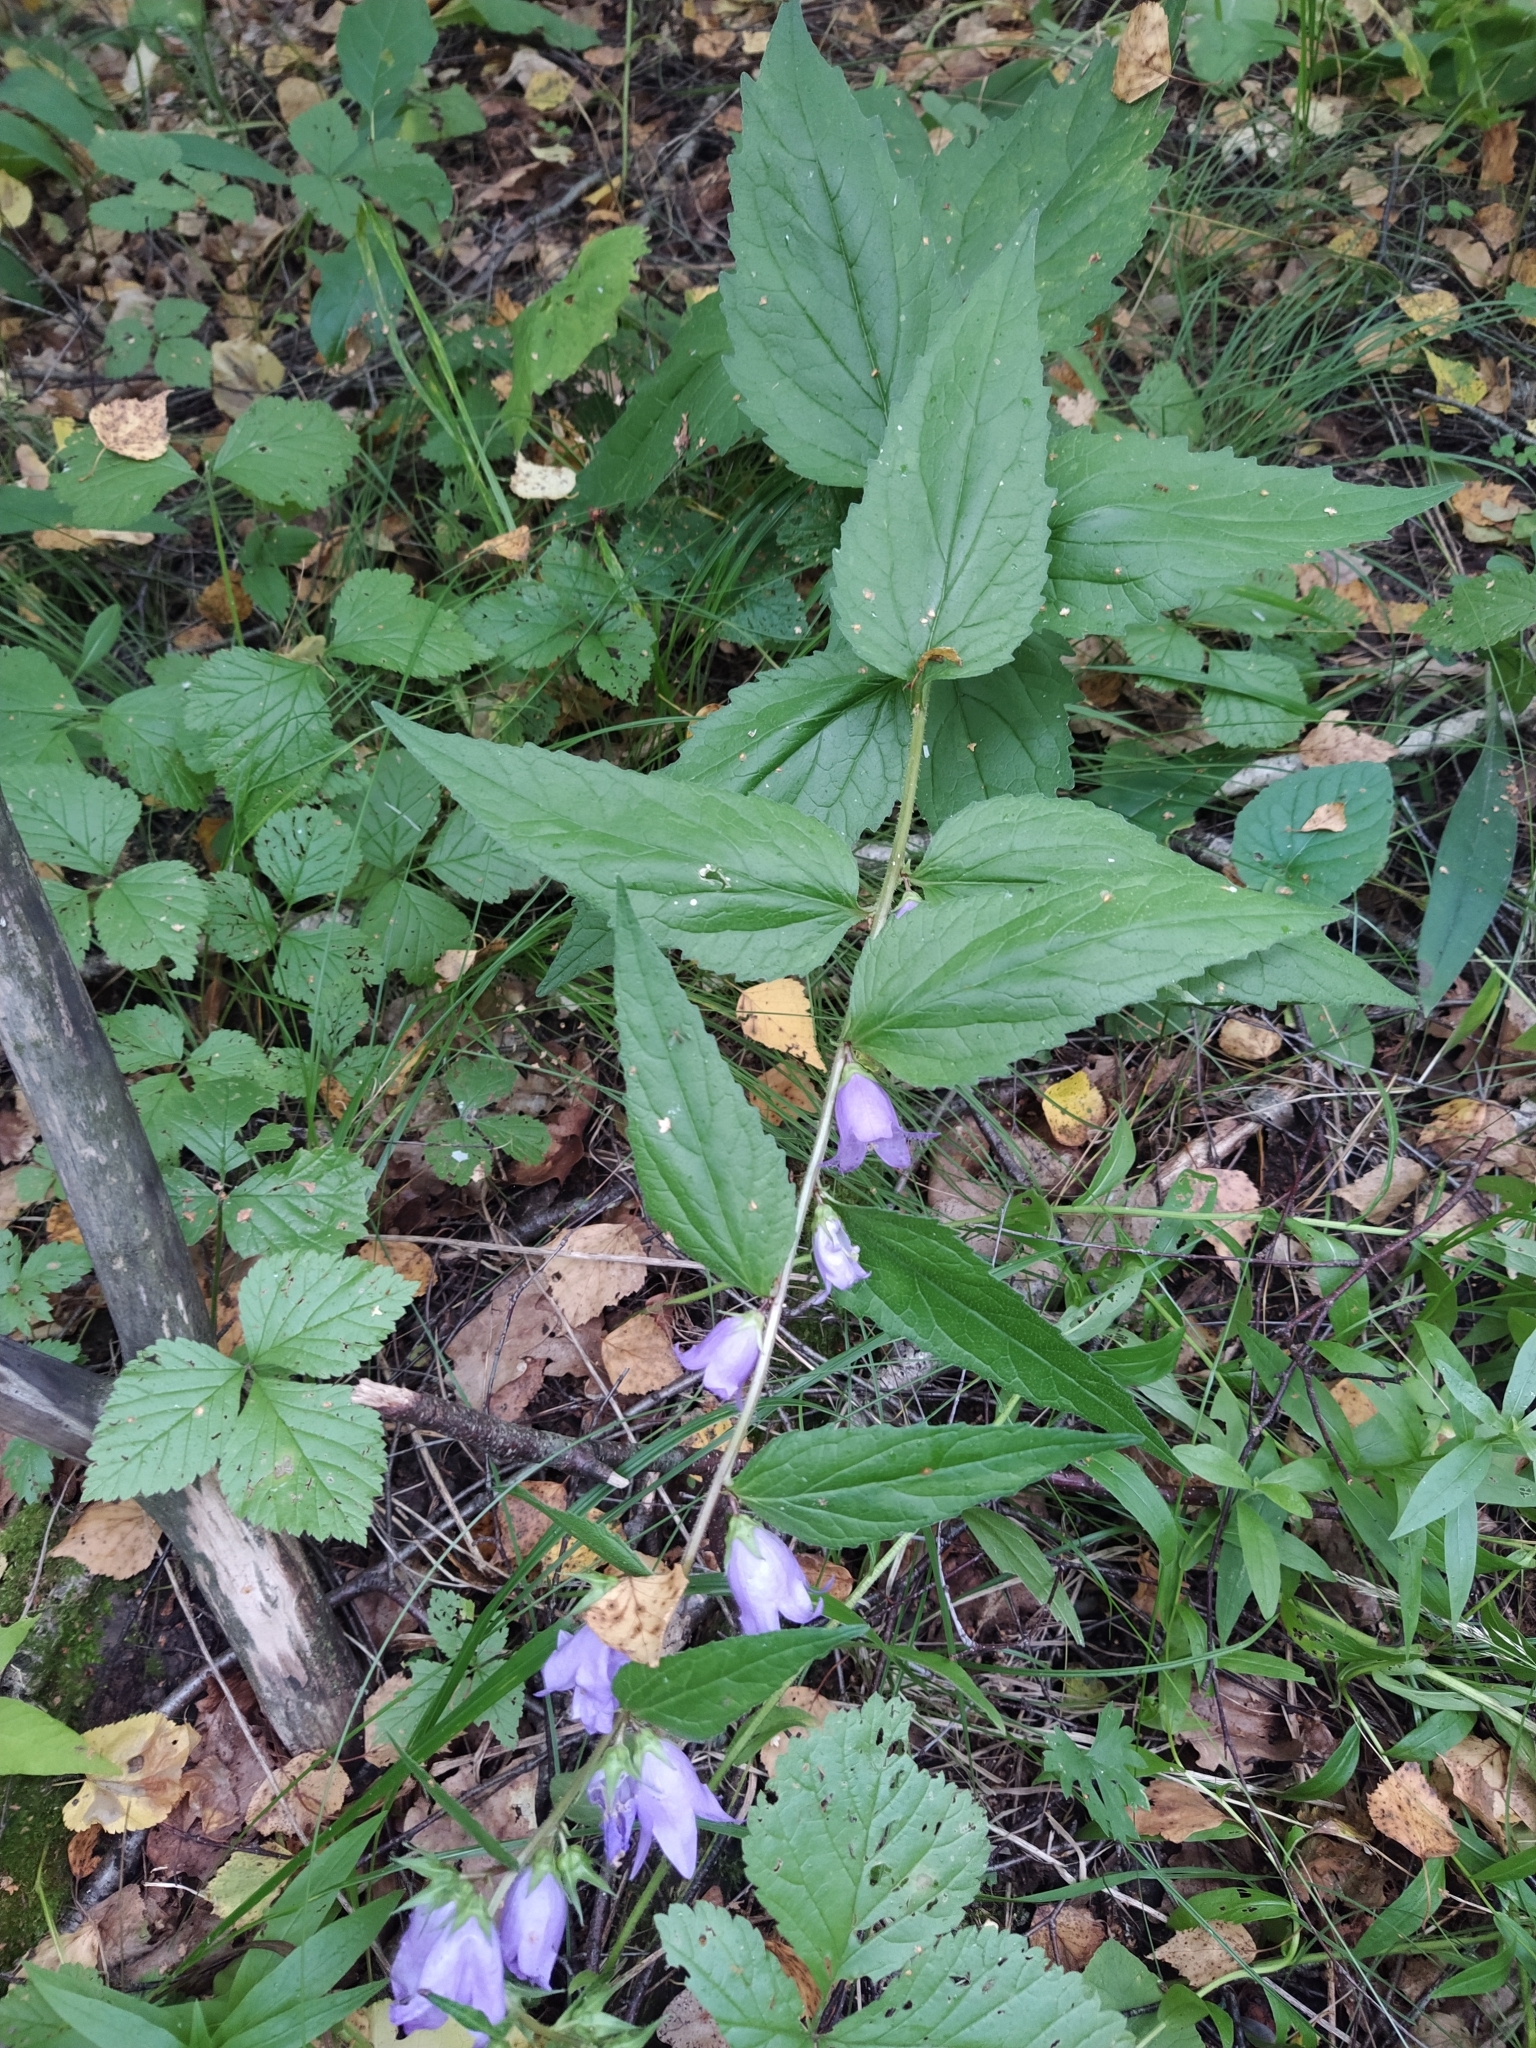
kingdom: Plantae
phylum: Tracheophyta
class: Magnoliopsida
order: Asterales
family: Campanulaceae
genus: Campanula
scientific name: Campanula trachelium
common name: Nettle-leaved bellflower
